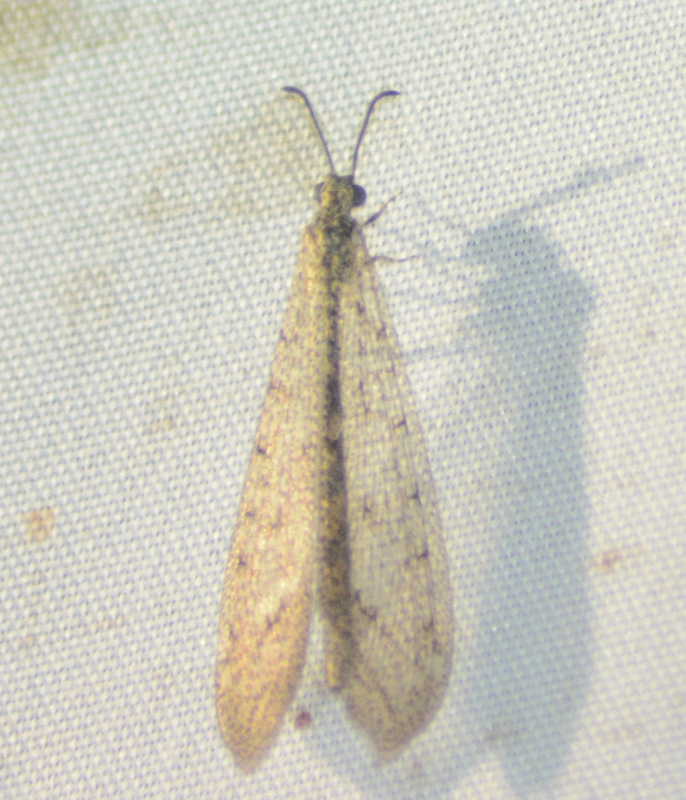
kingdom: Animalia
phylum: Arthropoda
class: Insecta
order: Neuroptera
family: Myrmeleontidae
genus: Atricholeon
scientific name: Atricholeon tuberculatus
